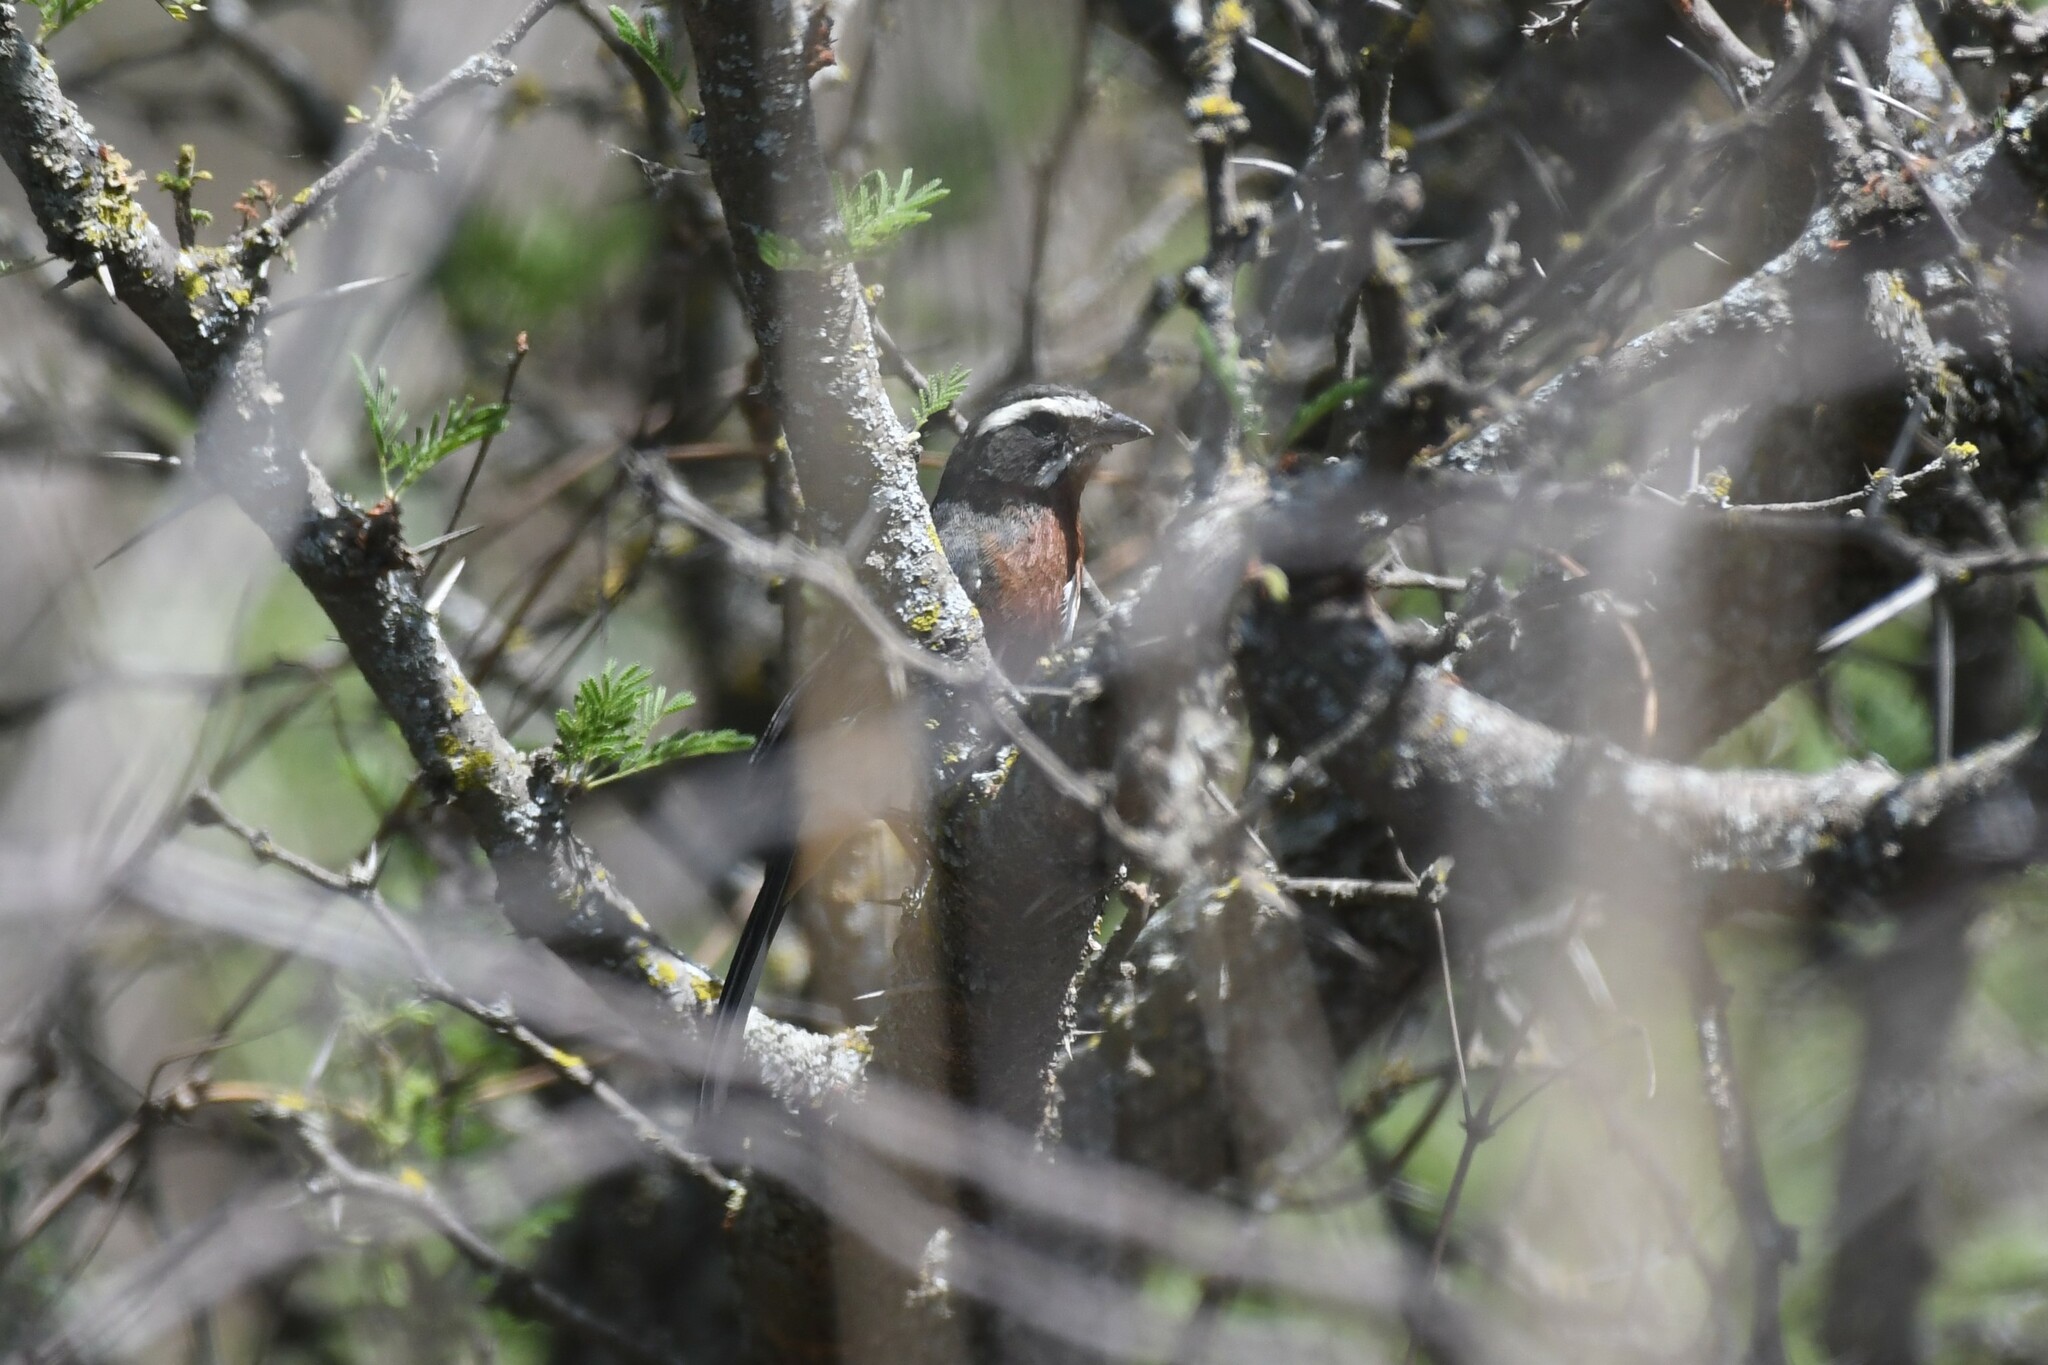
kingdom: Animalia
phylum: Chordata
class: Aves
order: Passeriformes
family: Thraupidae
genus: Poospiza
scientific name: Poospiza whitii
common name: Black-and-chestnut warbling finch
